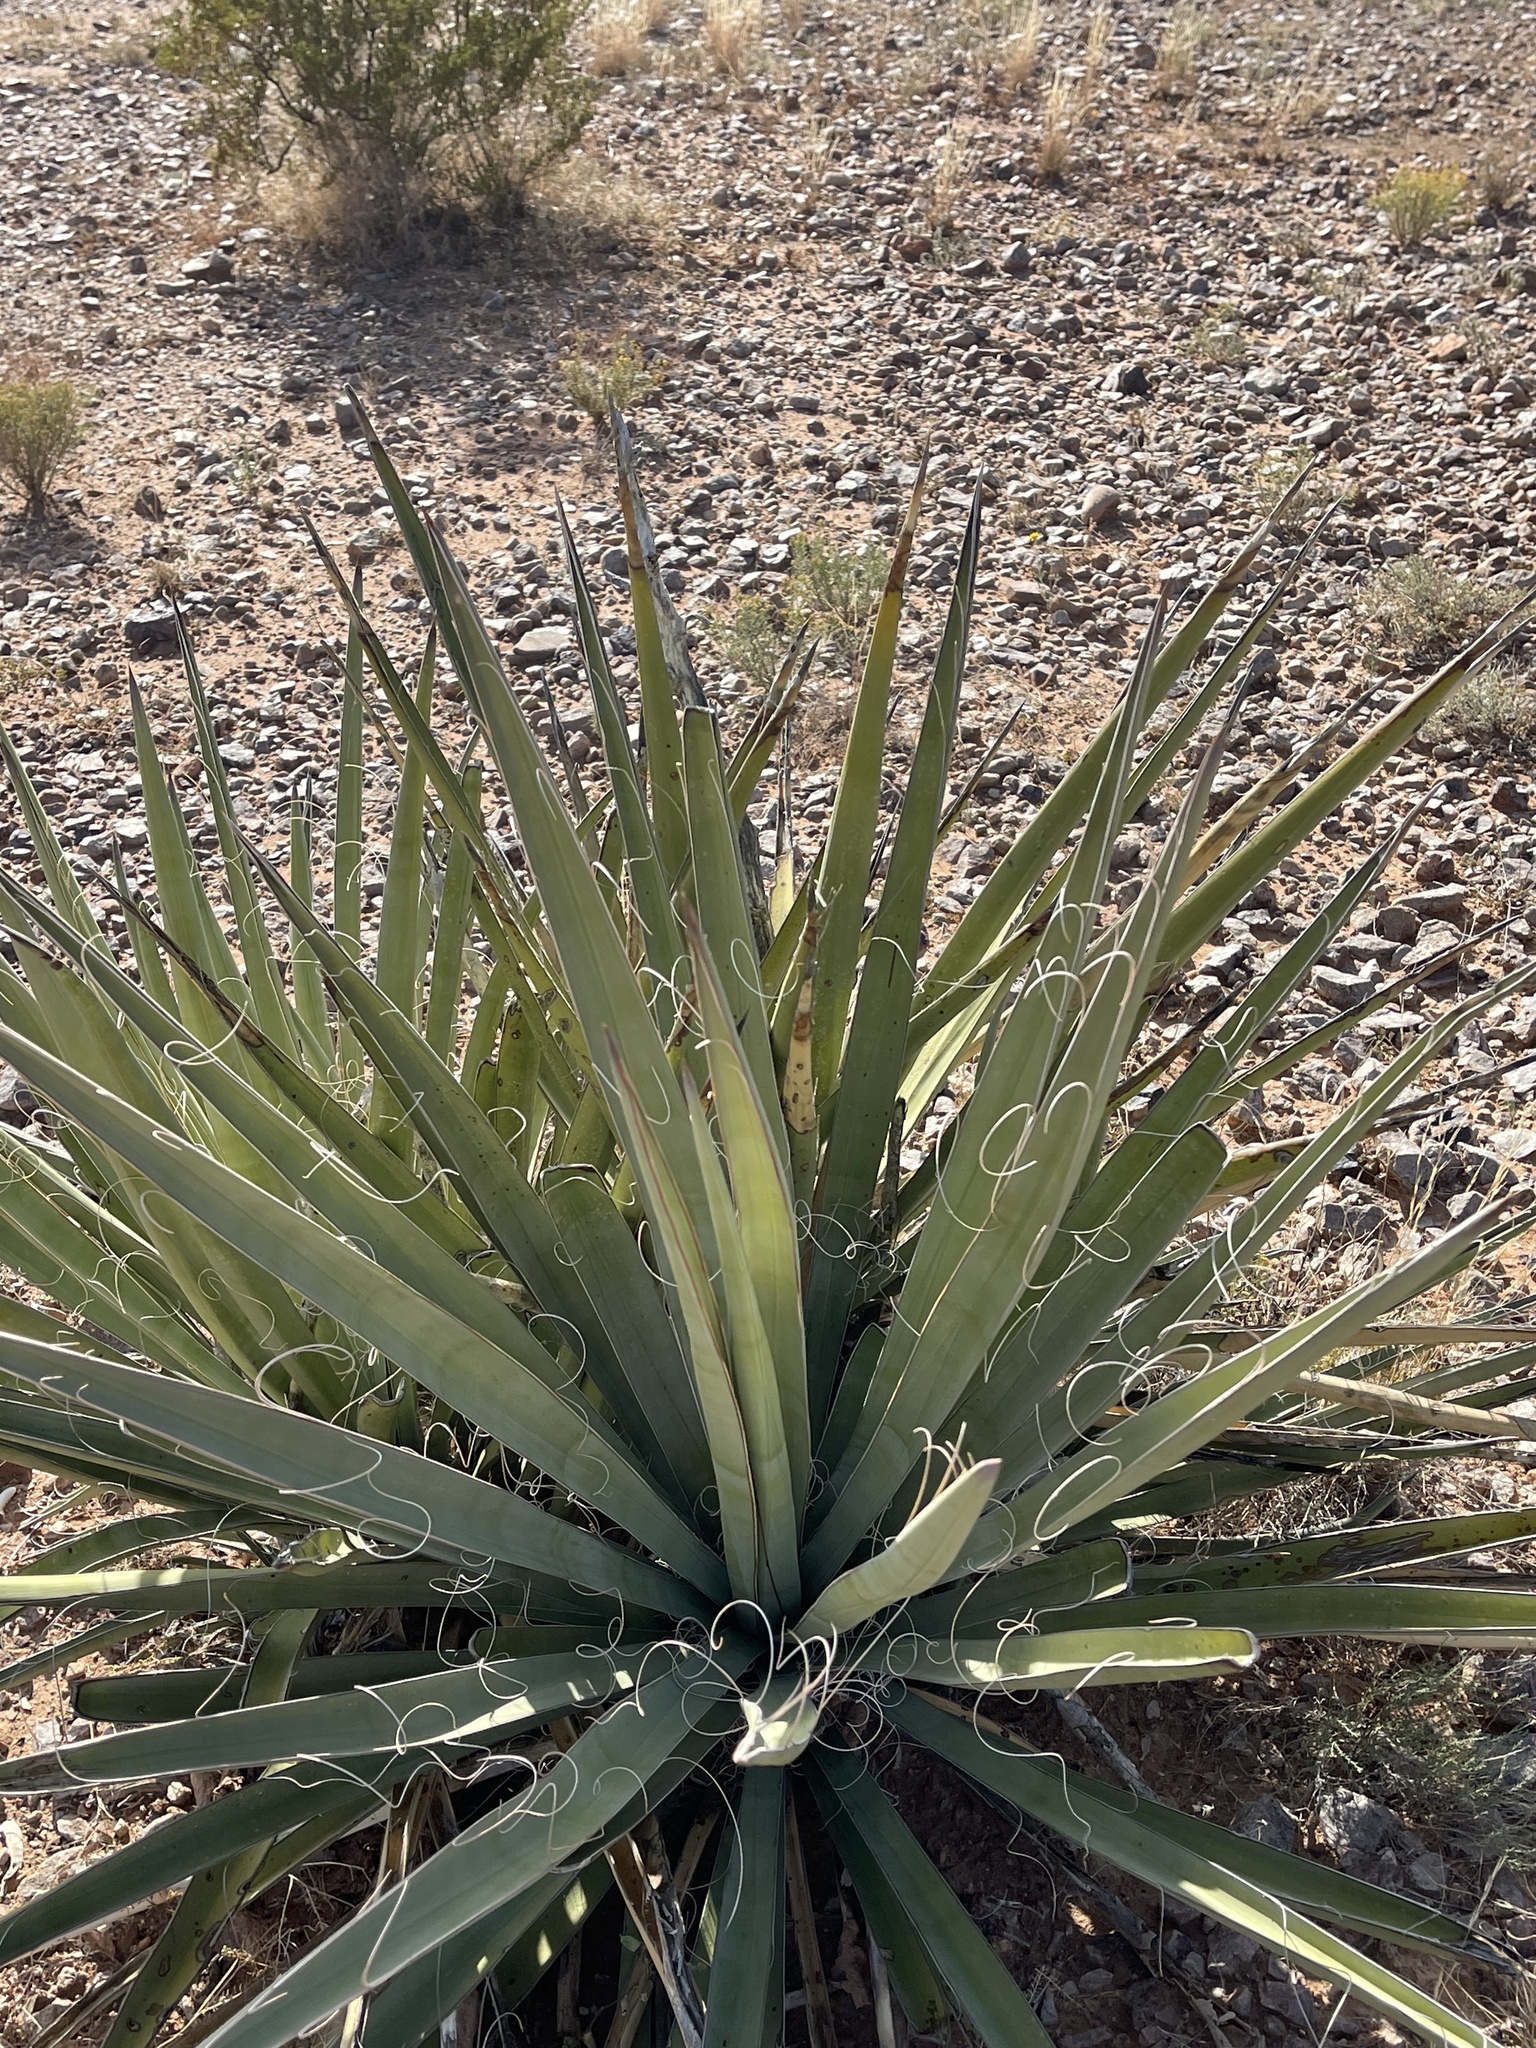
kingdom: Plantae
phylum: Tracheophyta
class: Liliopsida
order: Asparagales
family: Asparagaceae
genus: Yucca
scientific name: Yucca baccata
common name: Banana yucca
